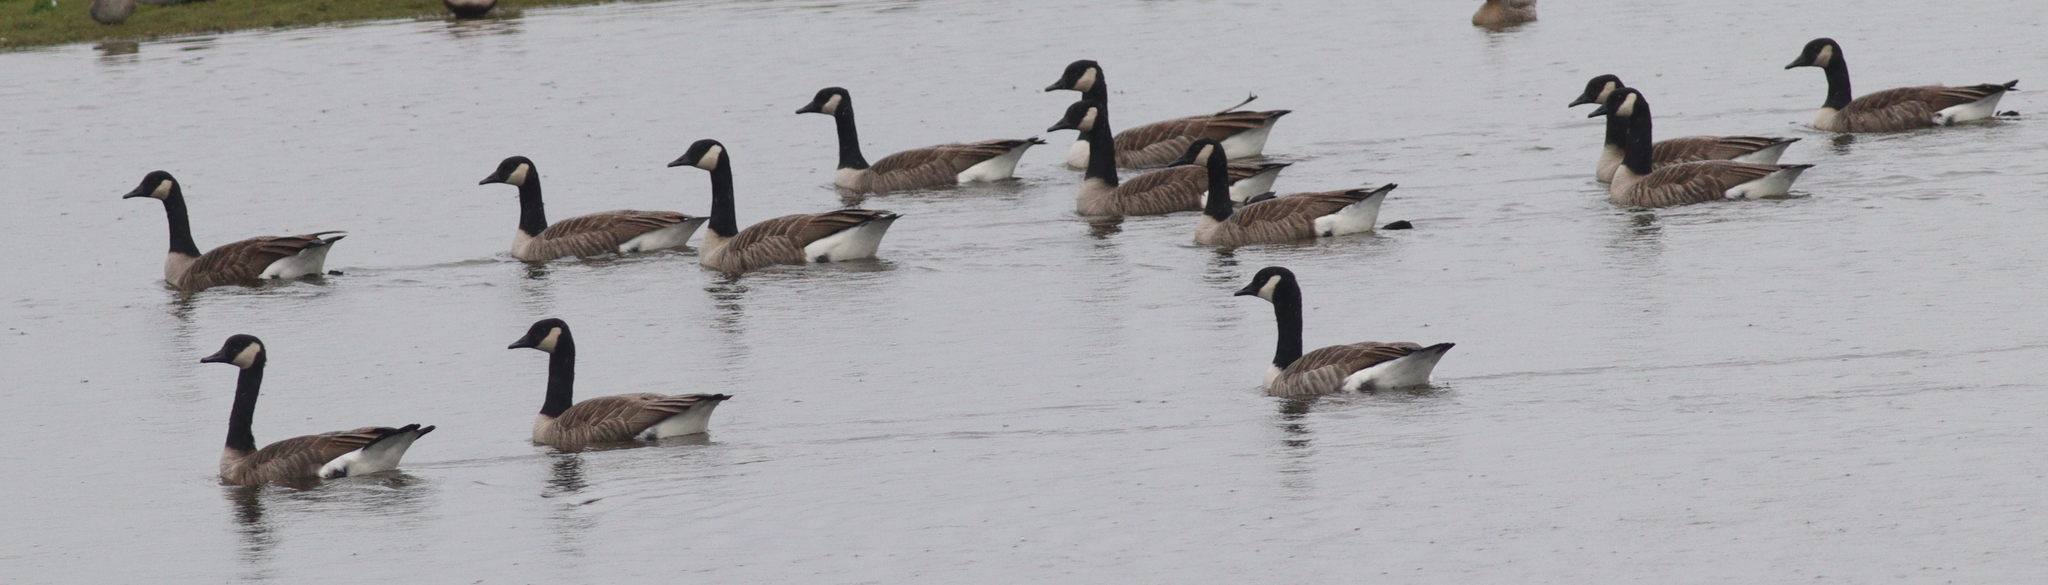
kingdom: Animalia
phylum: Chordata
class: Aves
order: Anseriformes
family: Anatidae
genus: Branta
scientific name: Branta canadensis
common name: Canada goose
